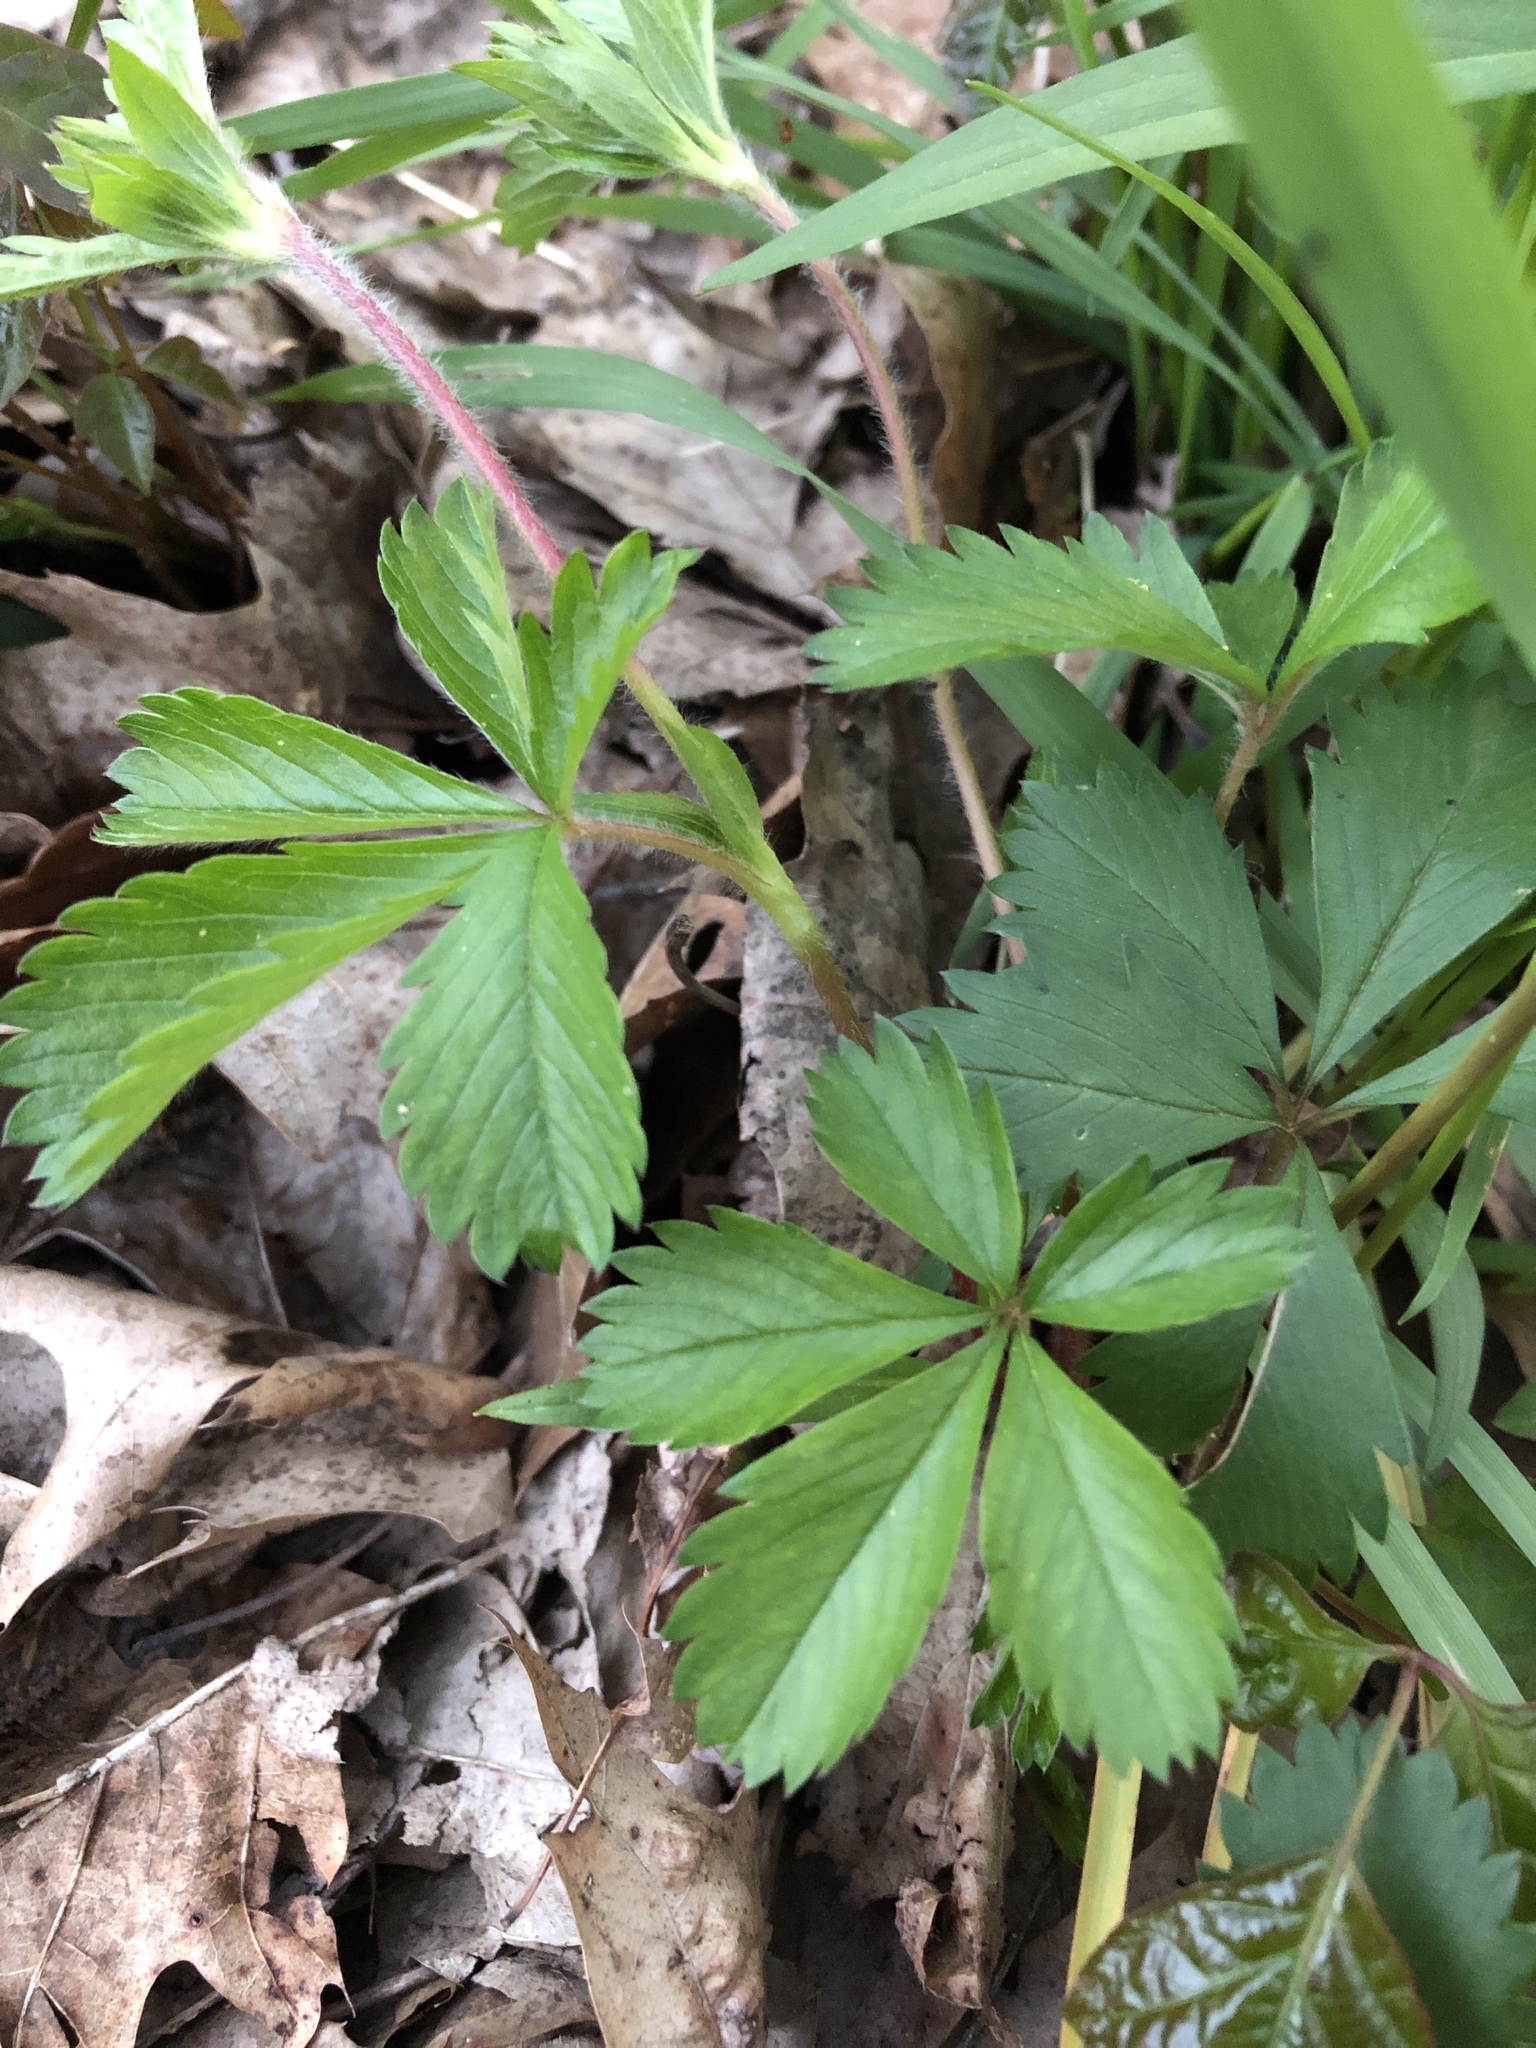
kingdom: Plantae
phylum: Tracheophyta
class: Magnoliopsida
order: Rosales
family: Rosaceae
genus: Potentilla
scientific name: Potentilla canadensis
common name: Canada cinquefoil
